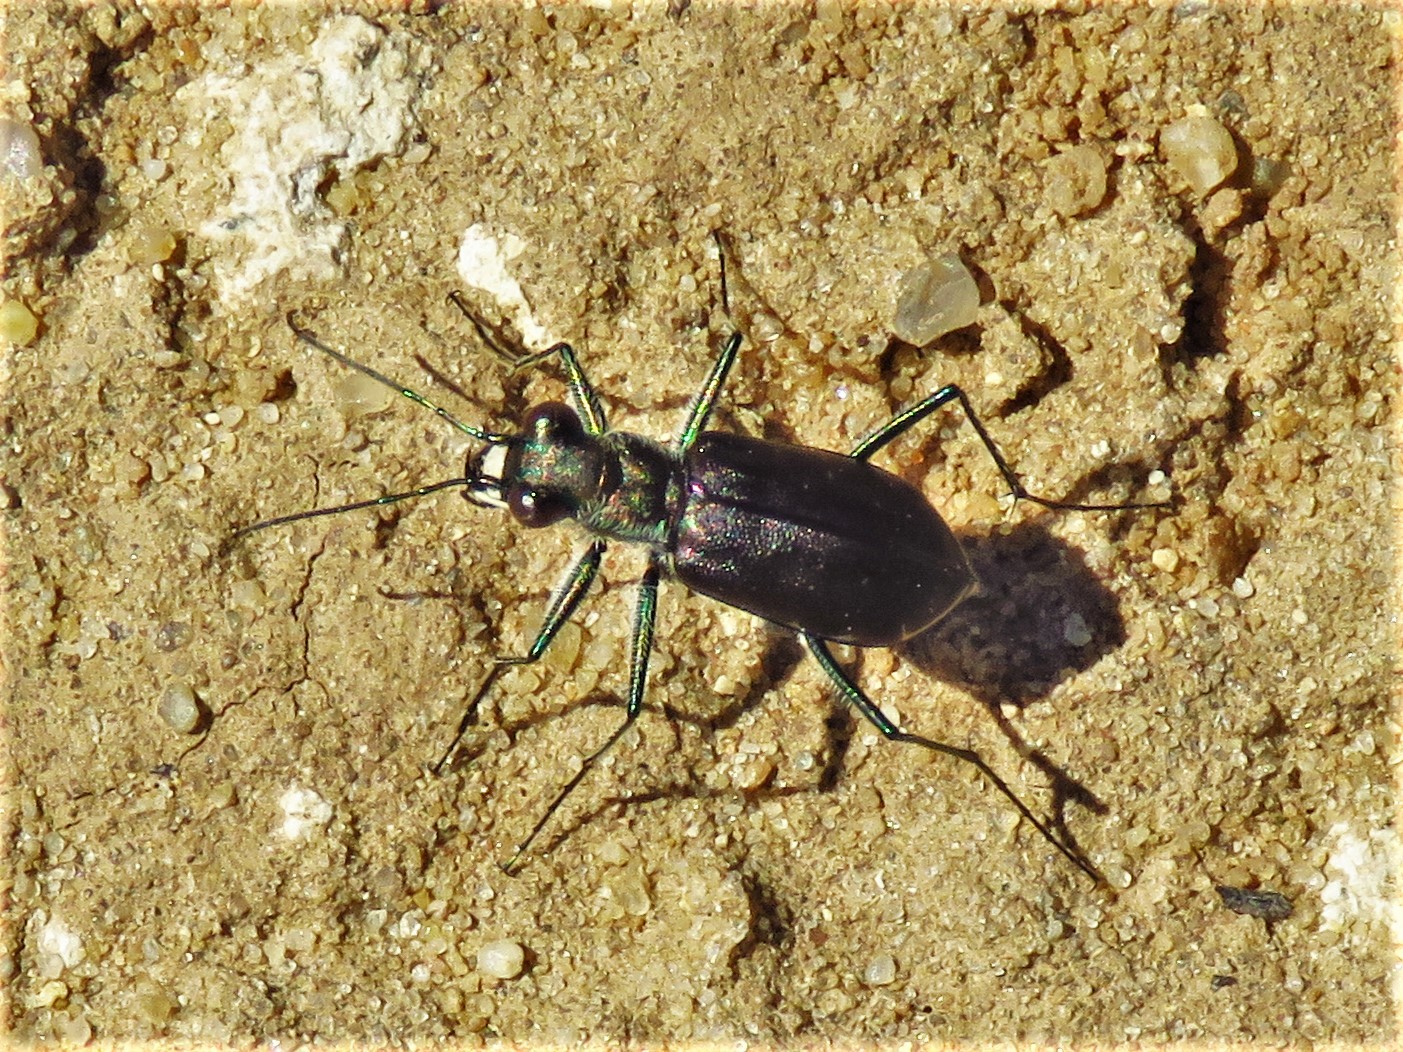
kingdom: Animalia
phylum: Arthropoda
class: Insecta
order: Coleoptera
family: Carabidae
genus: Cicindela
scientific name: Cicindela punctulata
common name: Punctured tiger beetle
